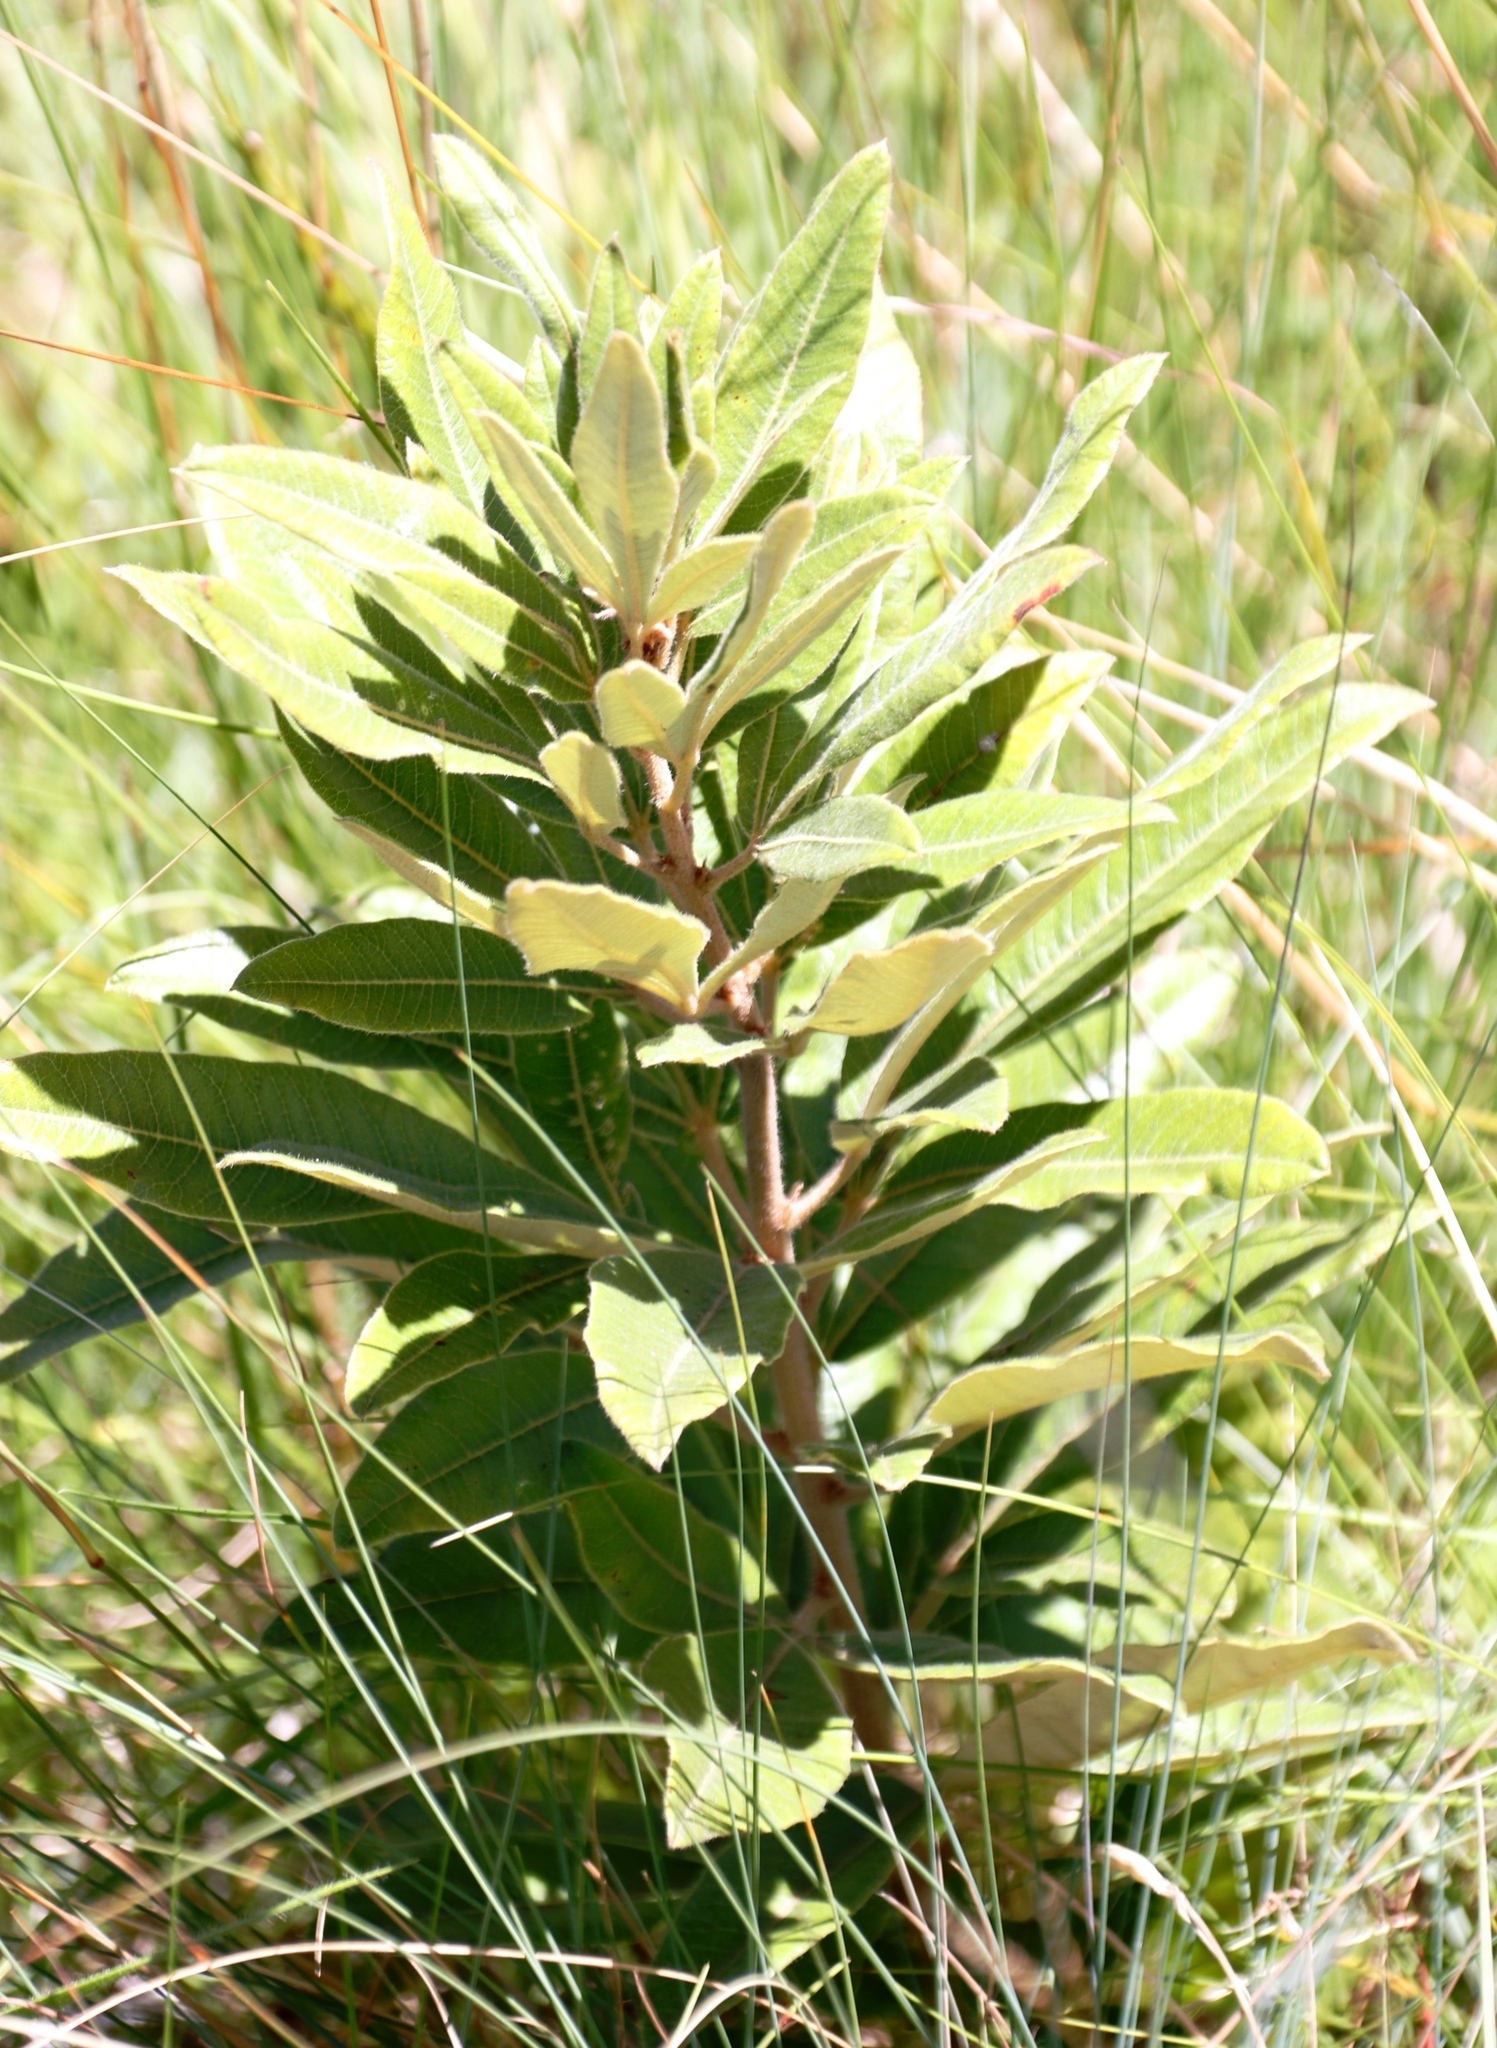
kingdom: Plantae
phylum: Tracheophyta
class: Magnoliopsida
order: Sapindales
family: Anacardiaceae
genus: Searsia
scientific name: Searsia discolor
